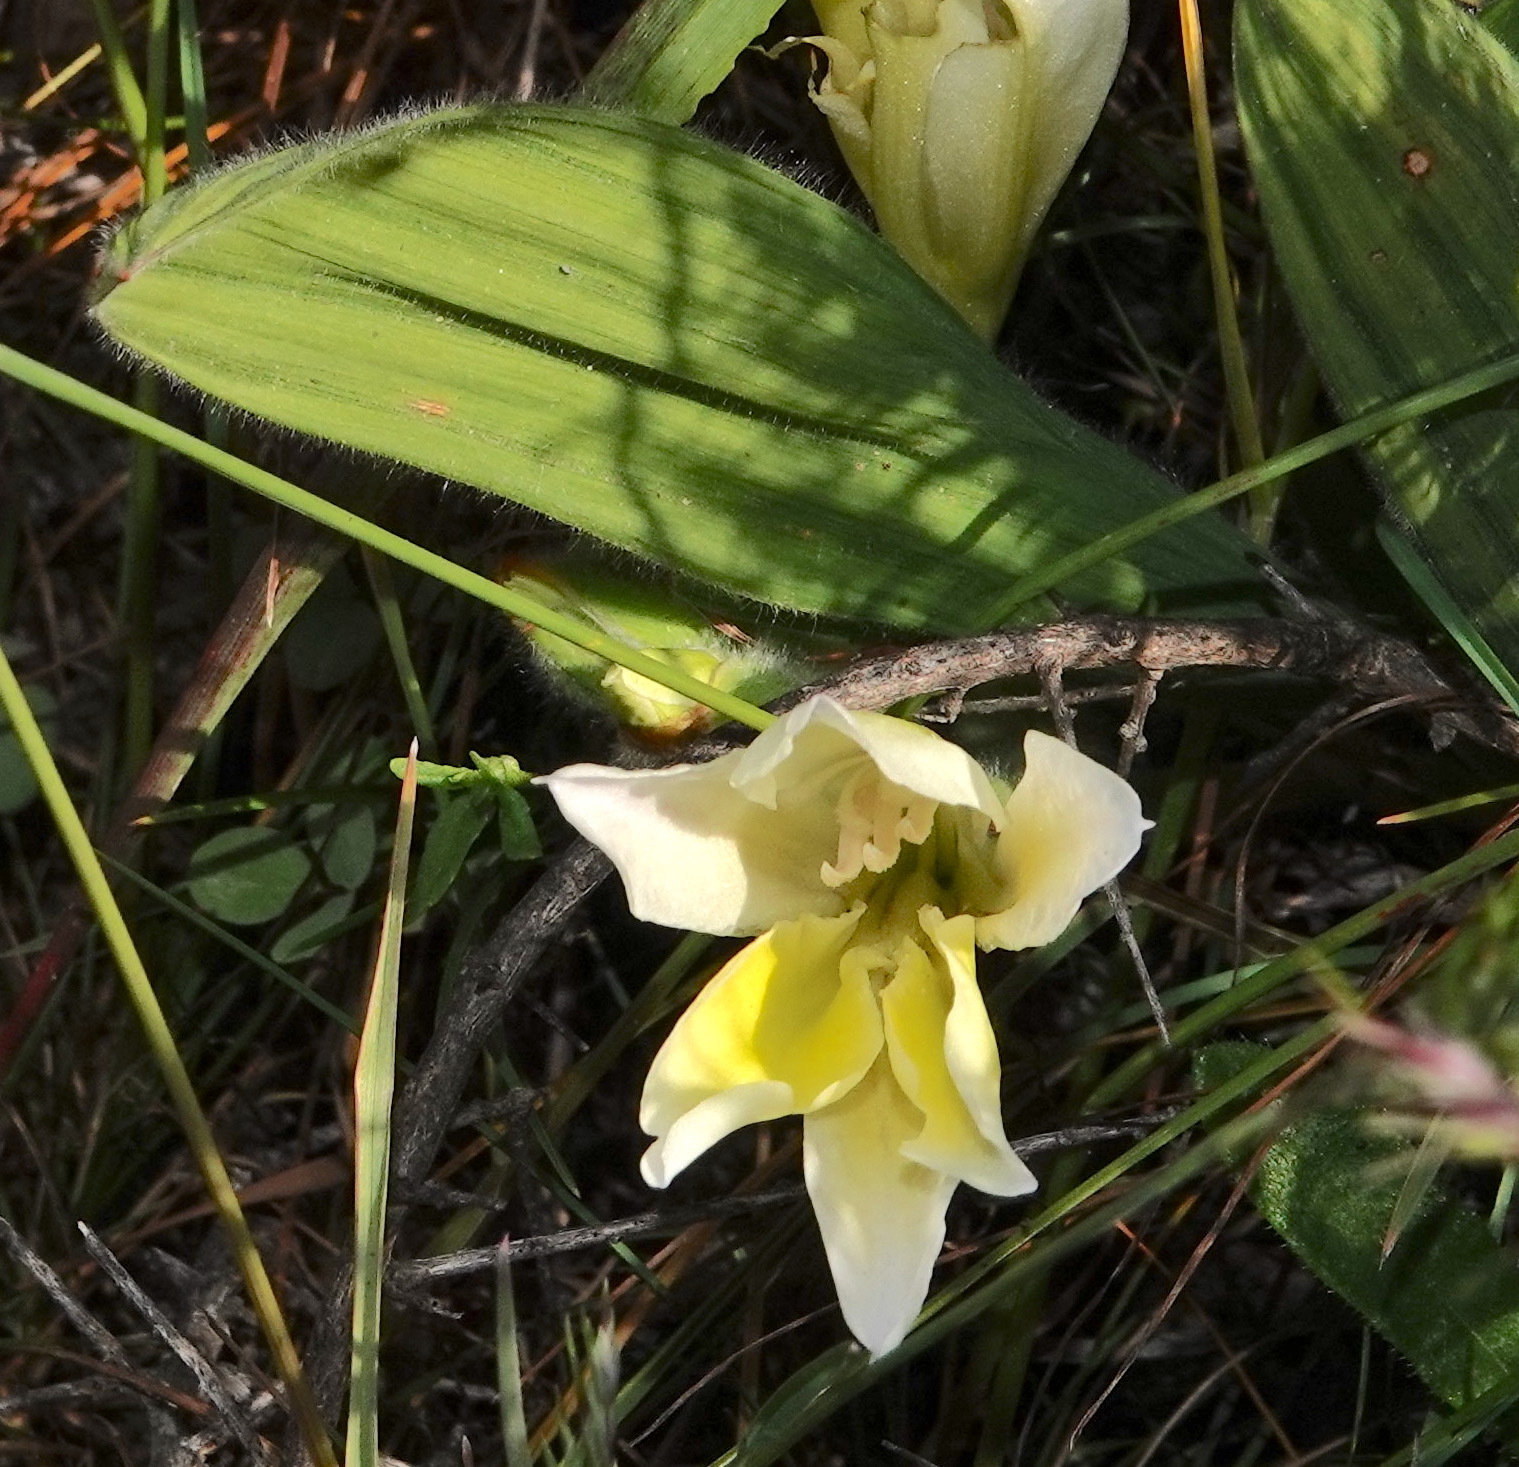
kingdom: Plantae
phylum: Tracheophyta
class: Liliopsida
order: Asparagales
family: Iridaceae
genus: Babiana
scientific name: Babiana vanzijliae
